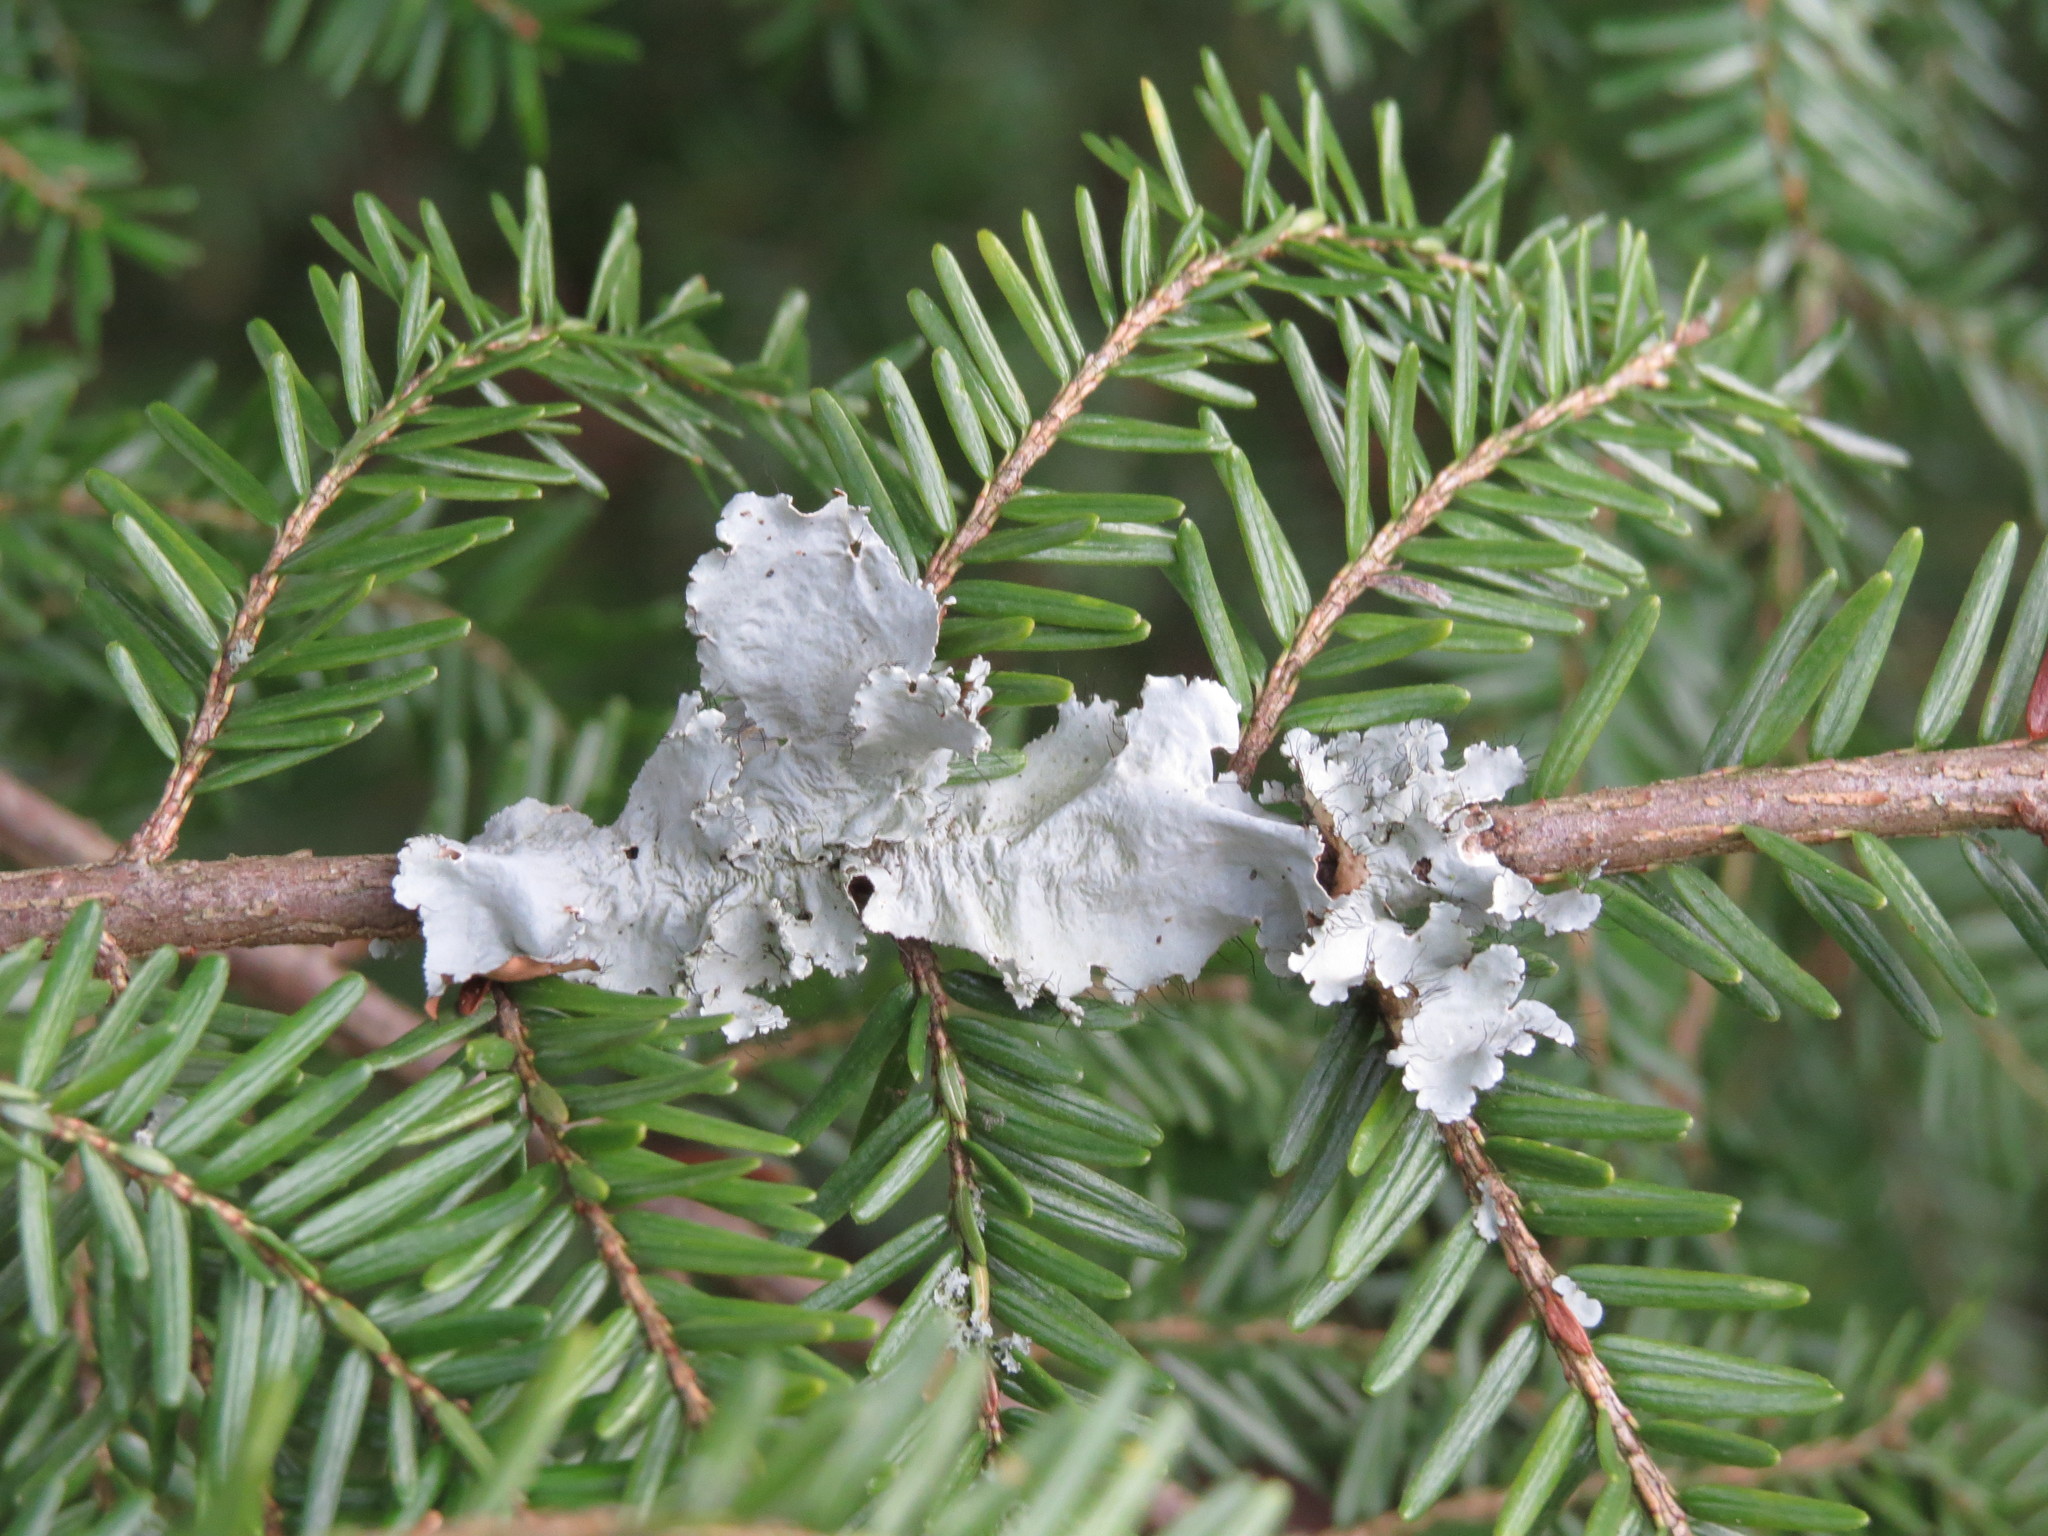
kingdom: Fungi
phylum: Ascomycota
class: Lecanoromycetes
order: Lecanorales
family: Parmeliaceae
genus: Parmotrema
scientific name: Parmotrema hypotropum
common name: Powdered ruffle lichen
